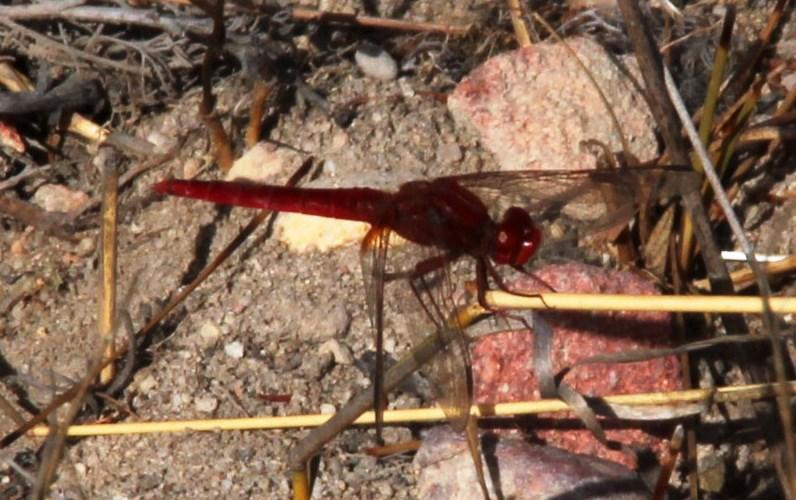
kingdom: Animalia
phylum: Arthropoda
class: Insecta
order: Odonata
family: Libellulidae
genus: Crocothemis
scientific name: Crocothemis erythraea
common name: Scarlet dragonfly
